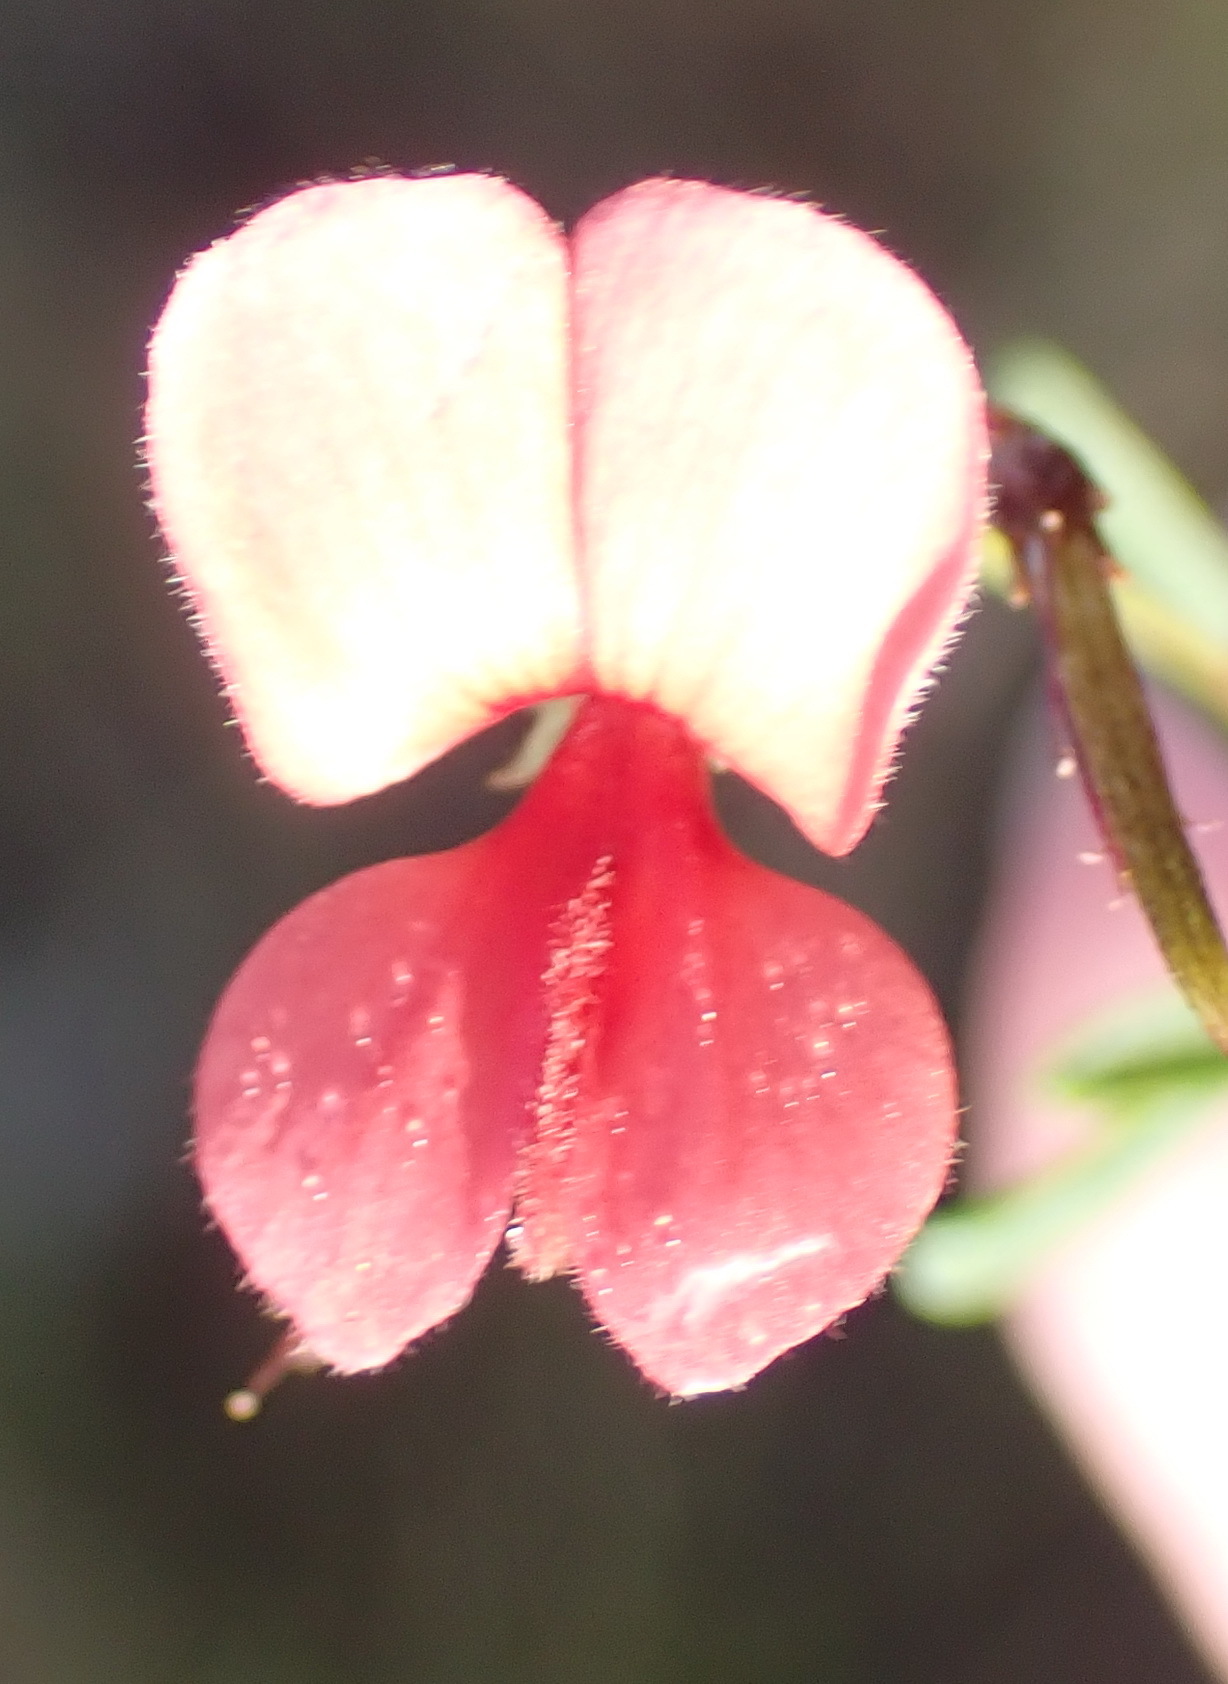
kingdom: Plantae
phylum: Tracheophyta
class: Magnoliopsida
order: Fabales
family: Fabaceae
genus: Indigofera
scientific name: Indigofera verrucosa
